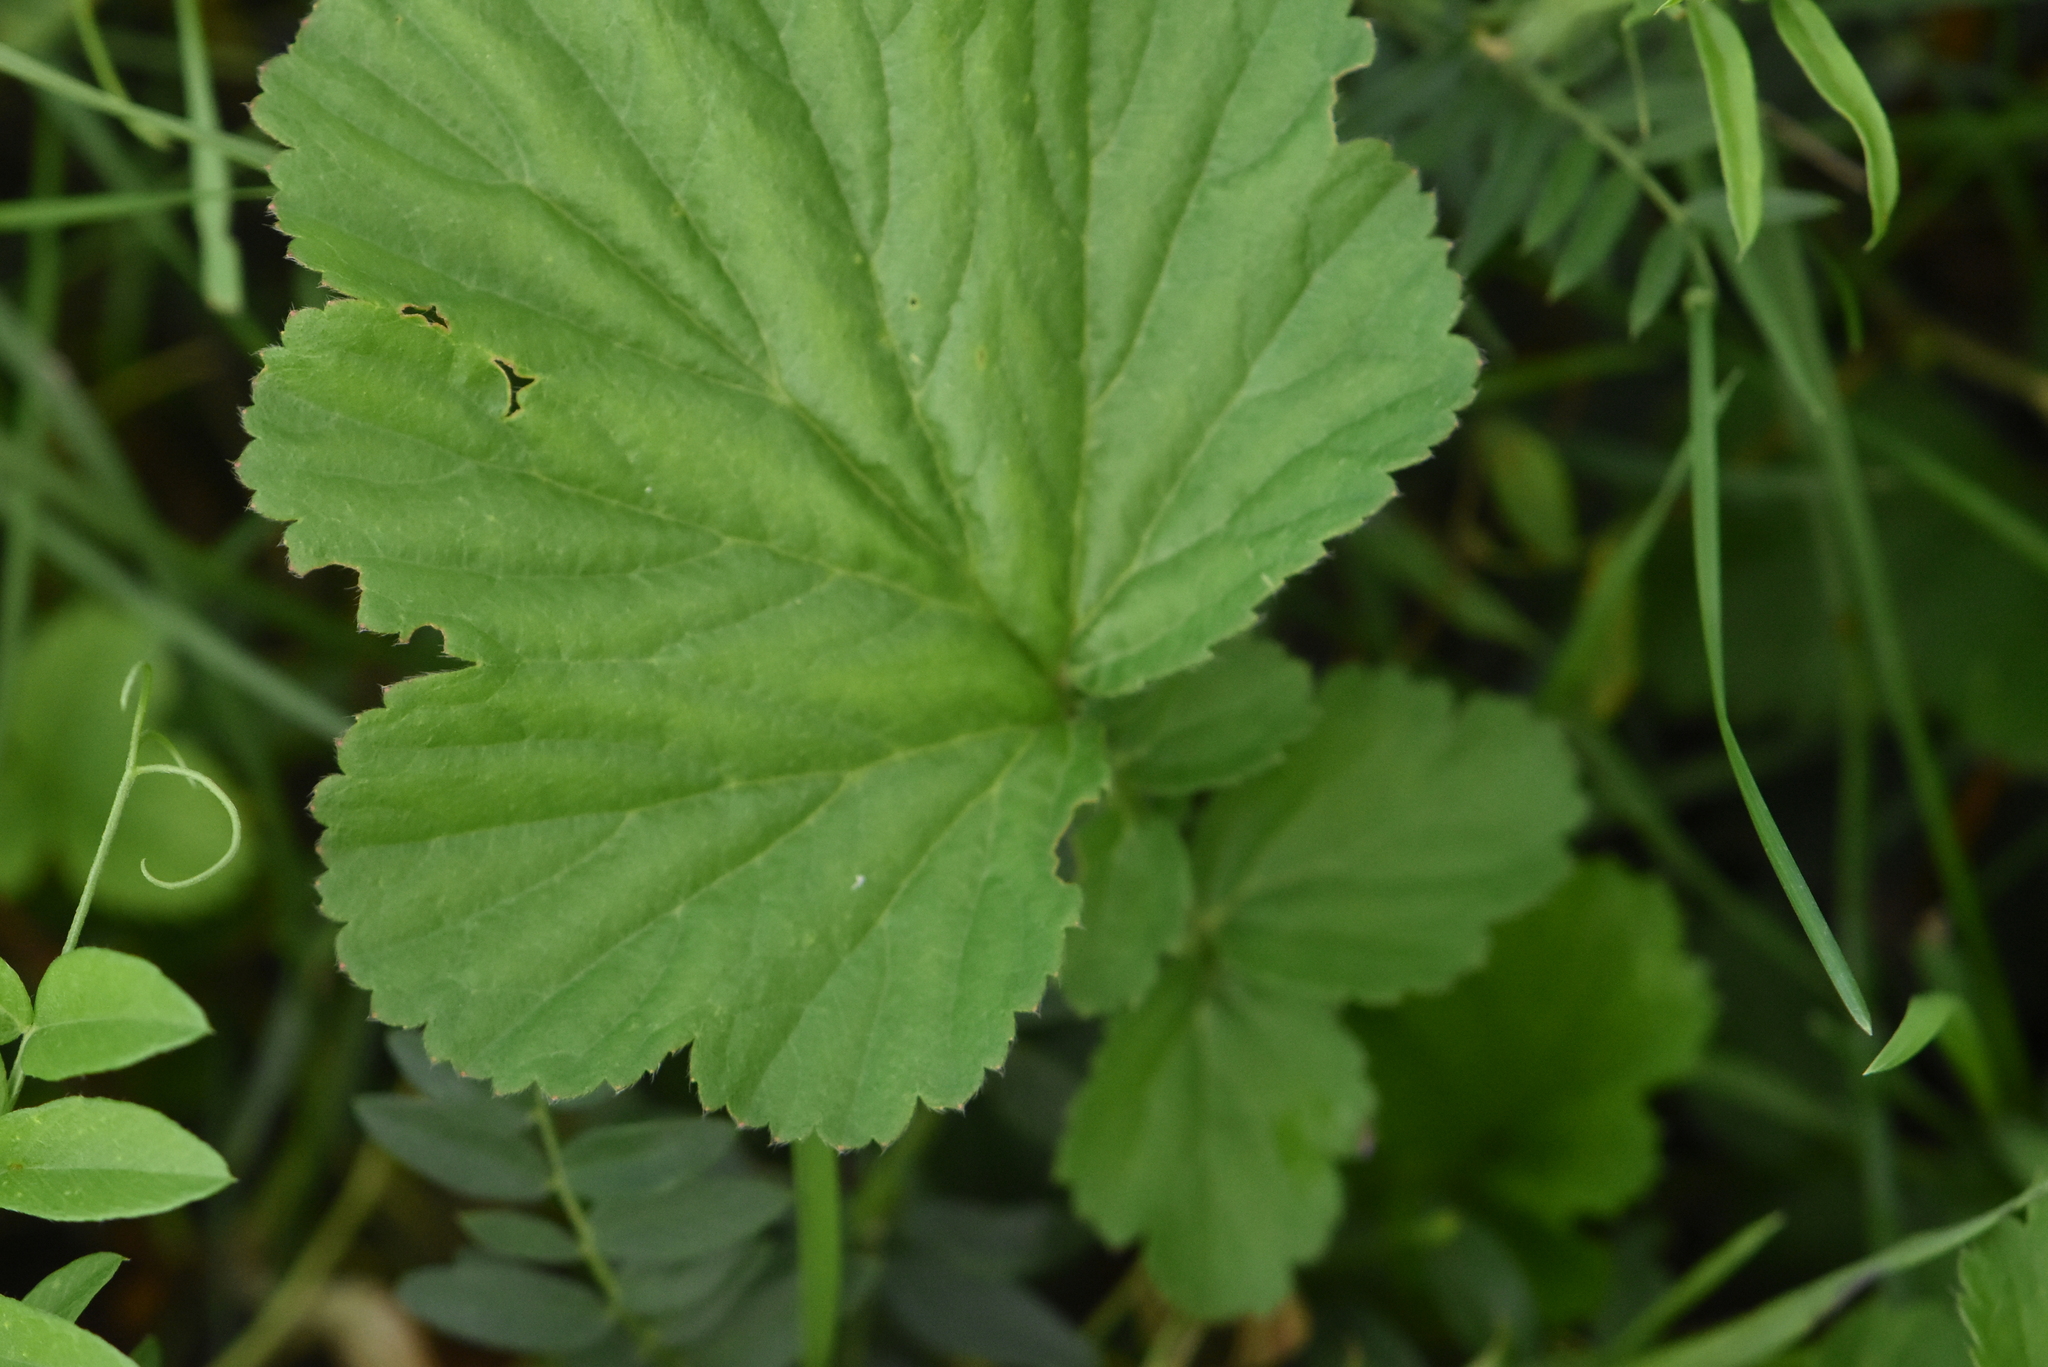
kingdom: Plantae
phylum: Tracheophyta
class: Magnoliopsida
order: Rosales
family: Rosaceae
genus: Geum
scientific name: Geum aleppicum
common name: Yellow avens
